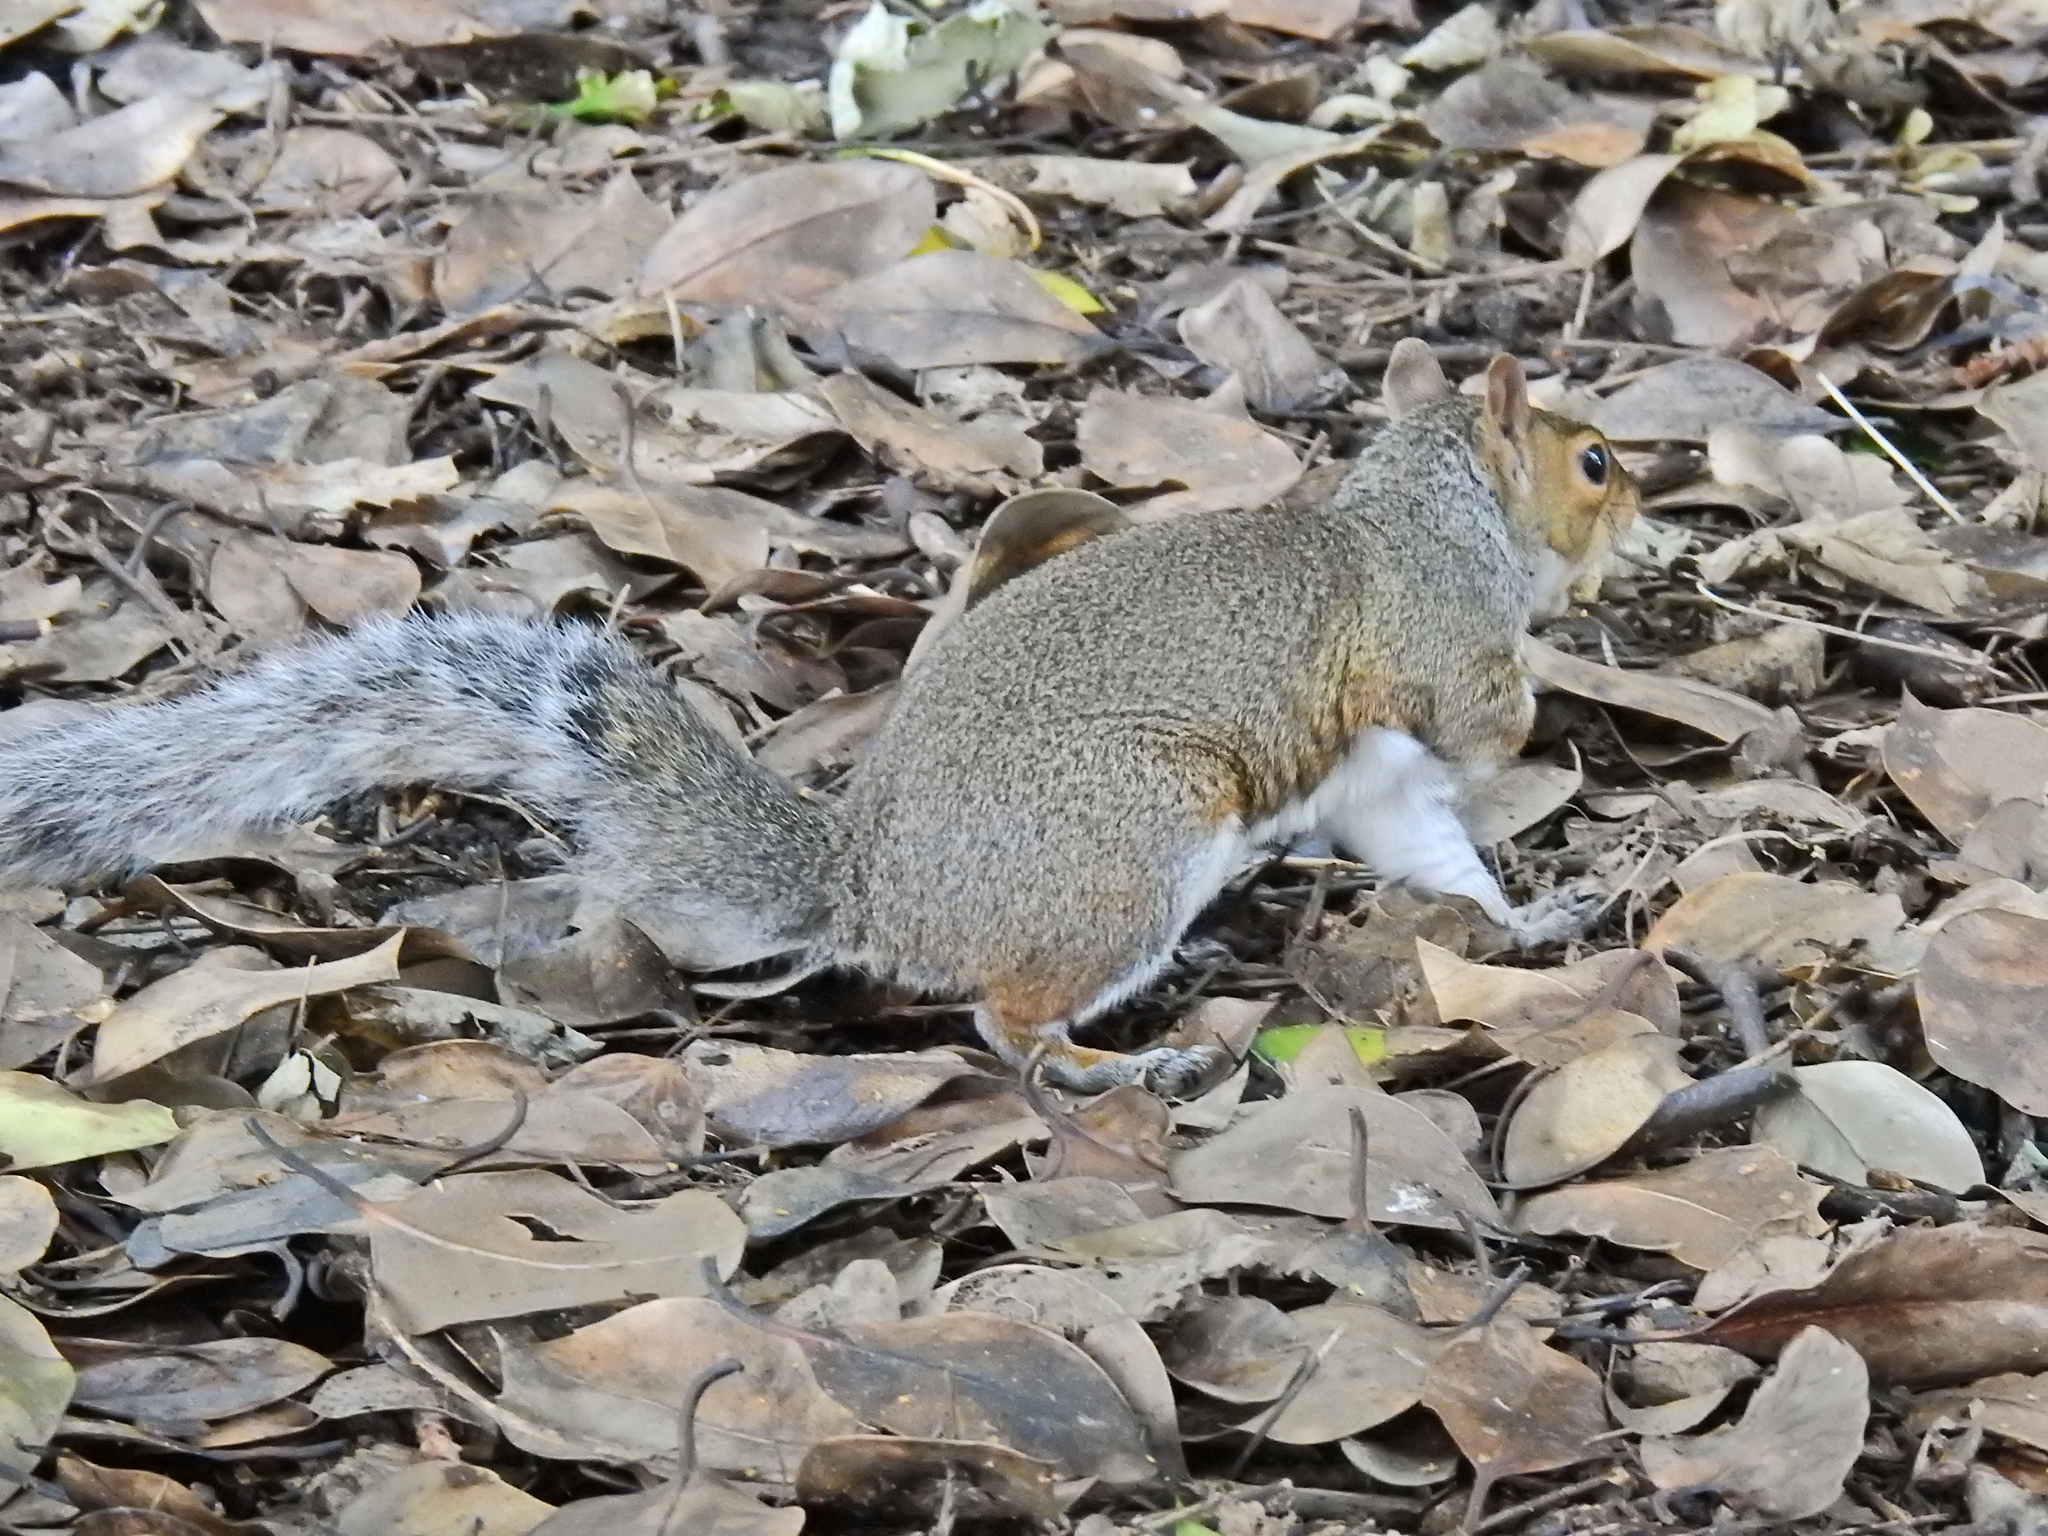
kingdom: Animalia
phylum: Chordata
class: Mammalia
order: Rodentia
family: Sciuridae
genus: Sciurus
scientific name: Sciurus carolinensis
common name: Eastern gray squirrel
